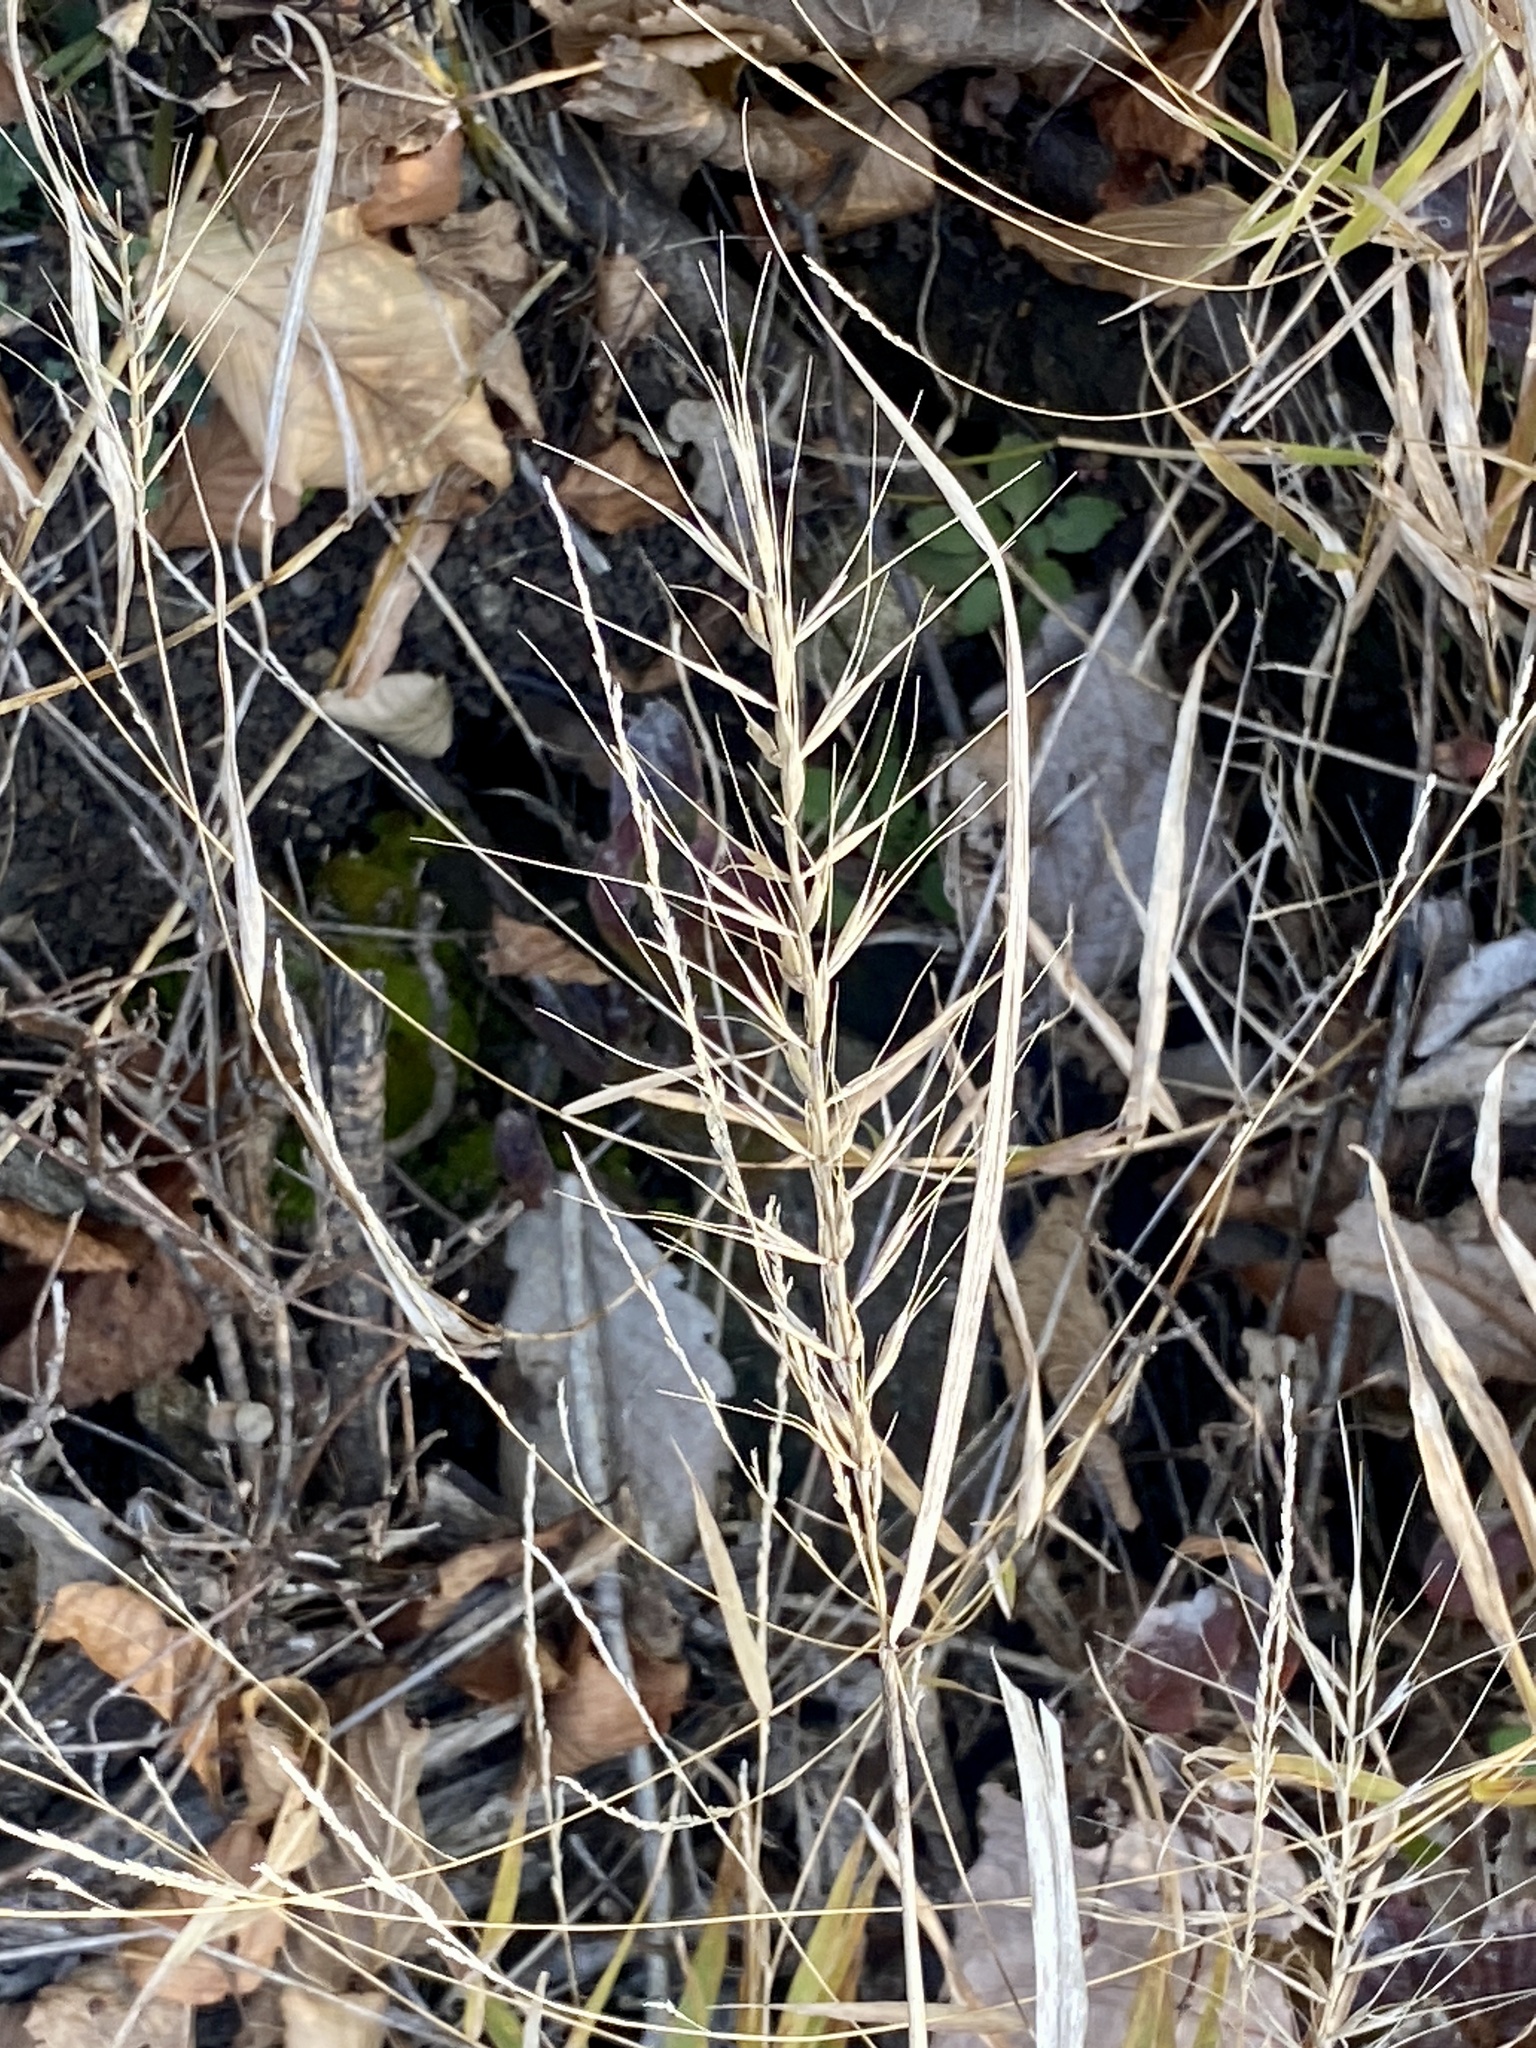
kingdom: Plantae
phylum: Tracheophyta
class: Liliopsida
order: Poales
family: Poaceae
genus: Elymus
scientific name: Elymus hystrix
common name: Bottlebrush grass
